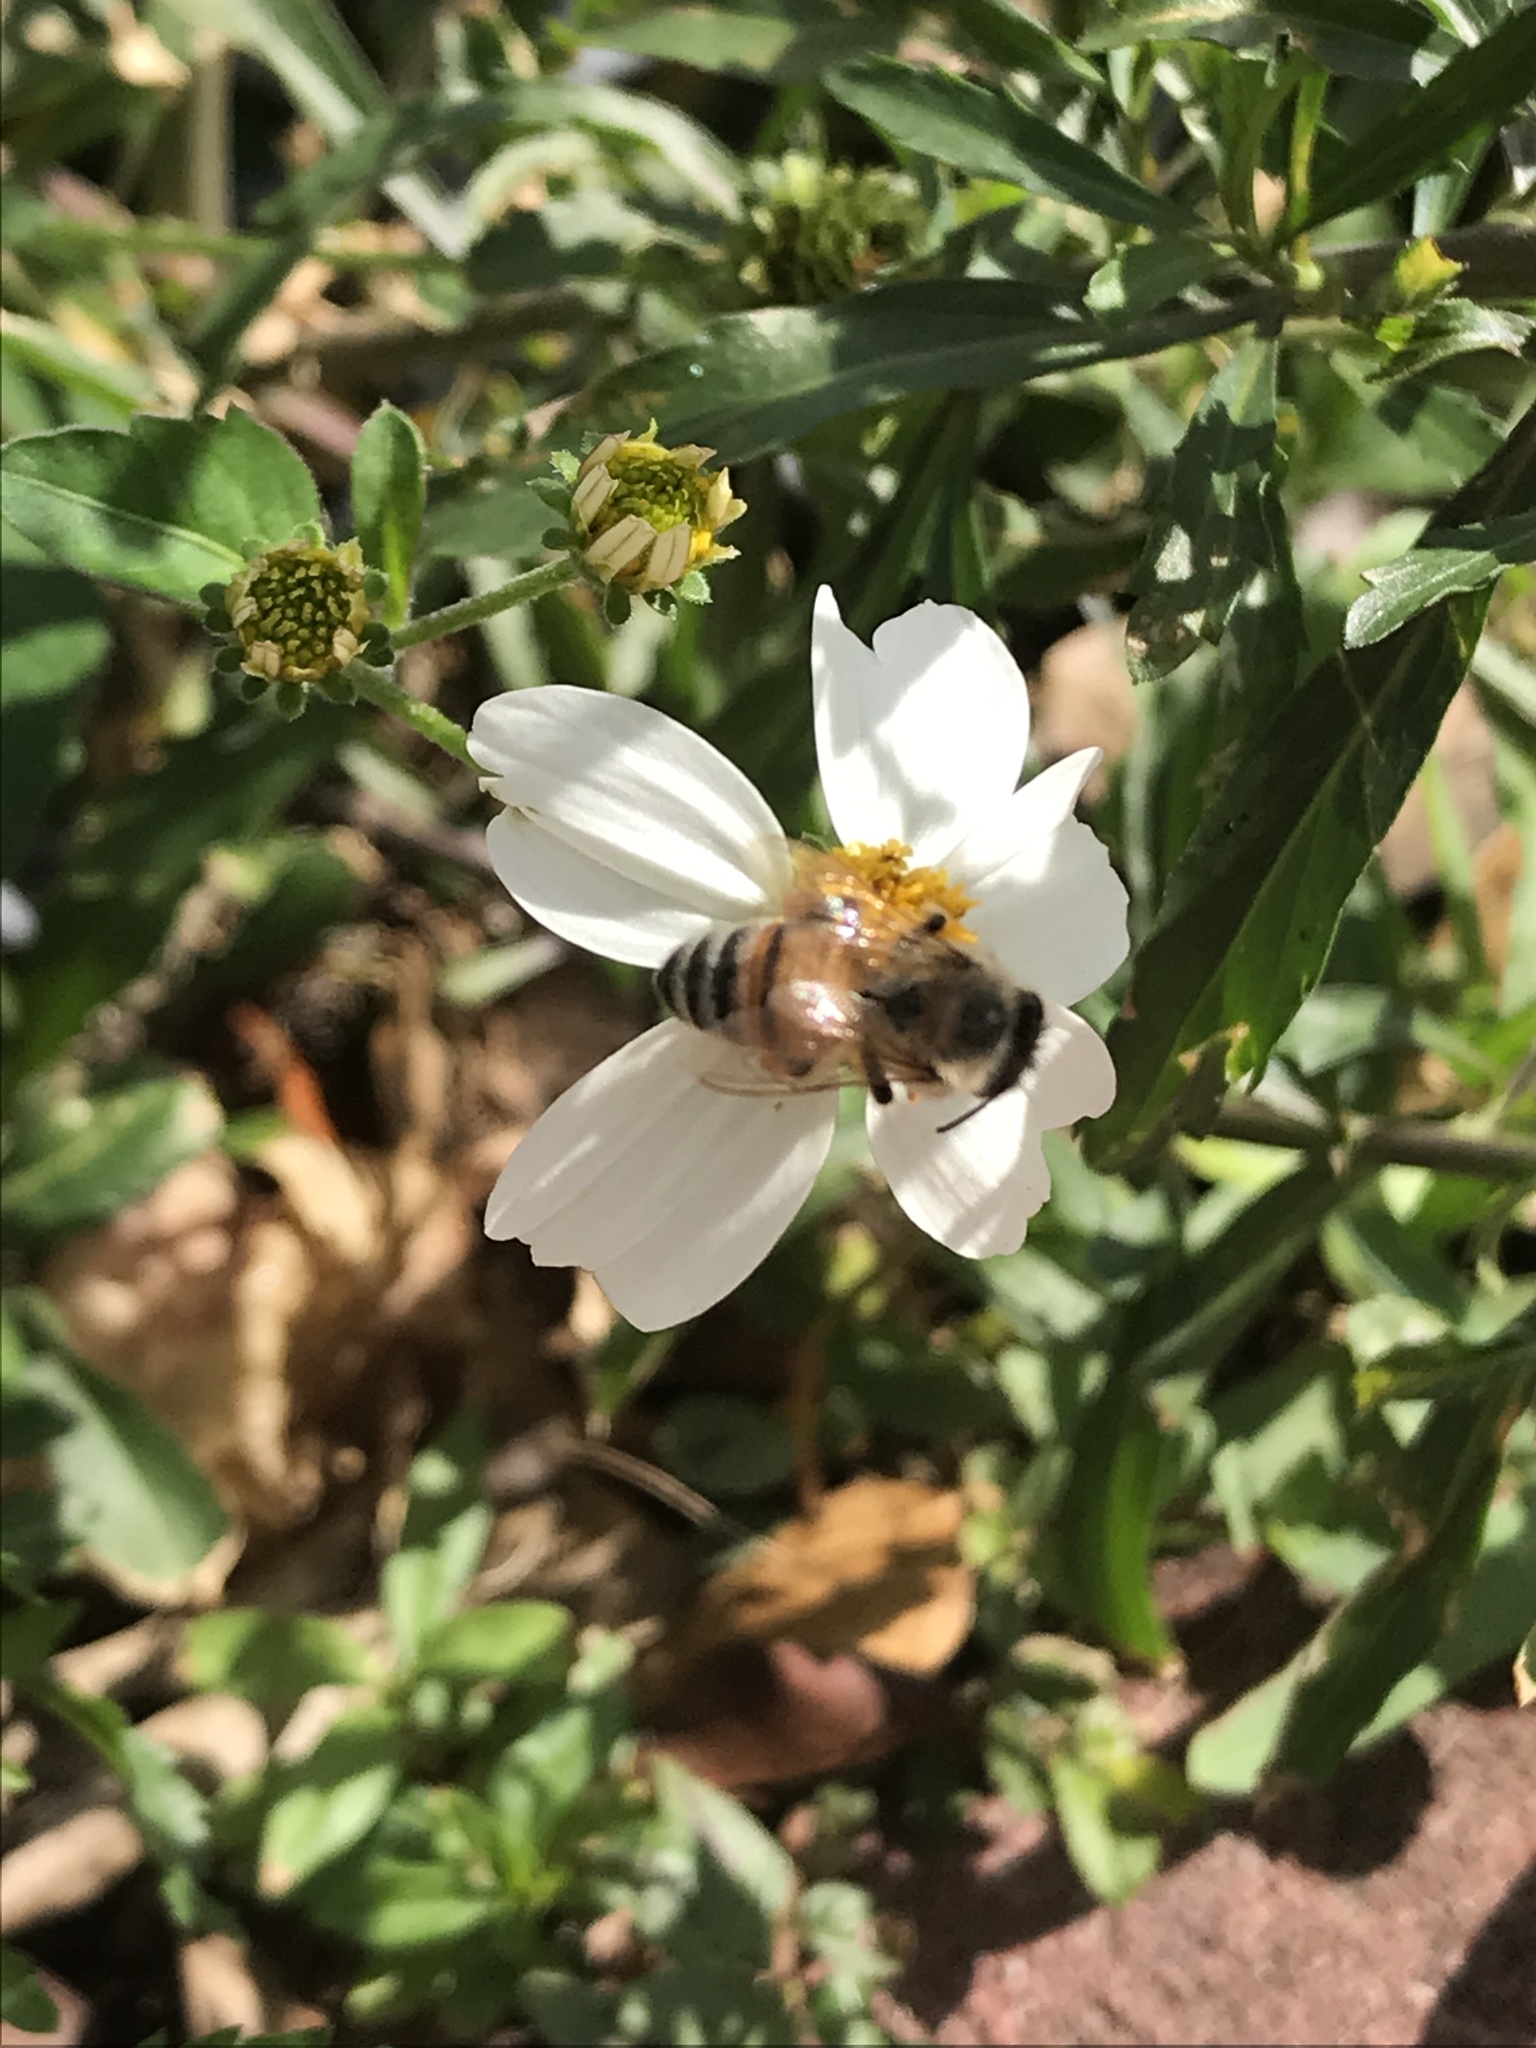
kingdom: Animalia
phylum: Arthropoda
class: Insecta
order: Hymenoptera
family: Apidae
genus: Apis
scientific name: Apis mellifera
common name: Honey bee
